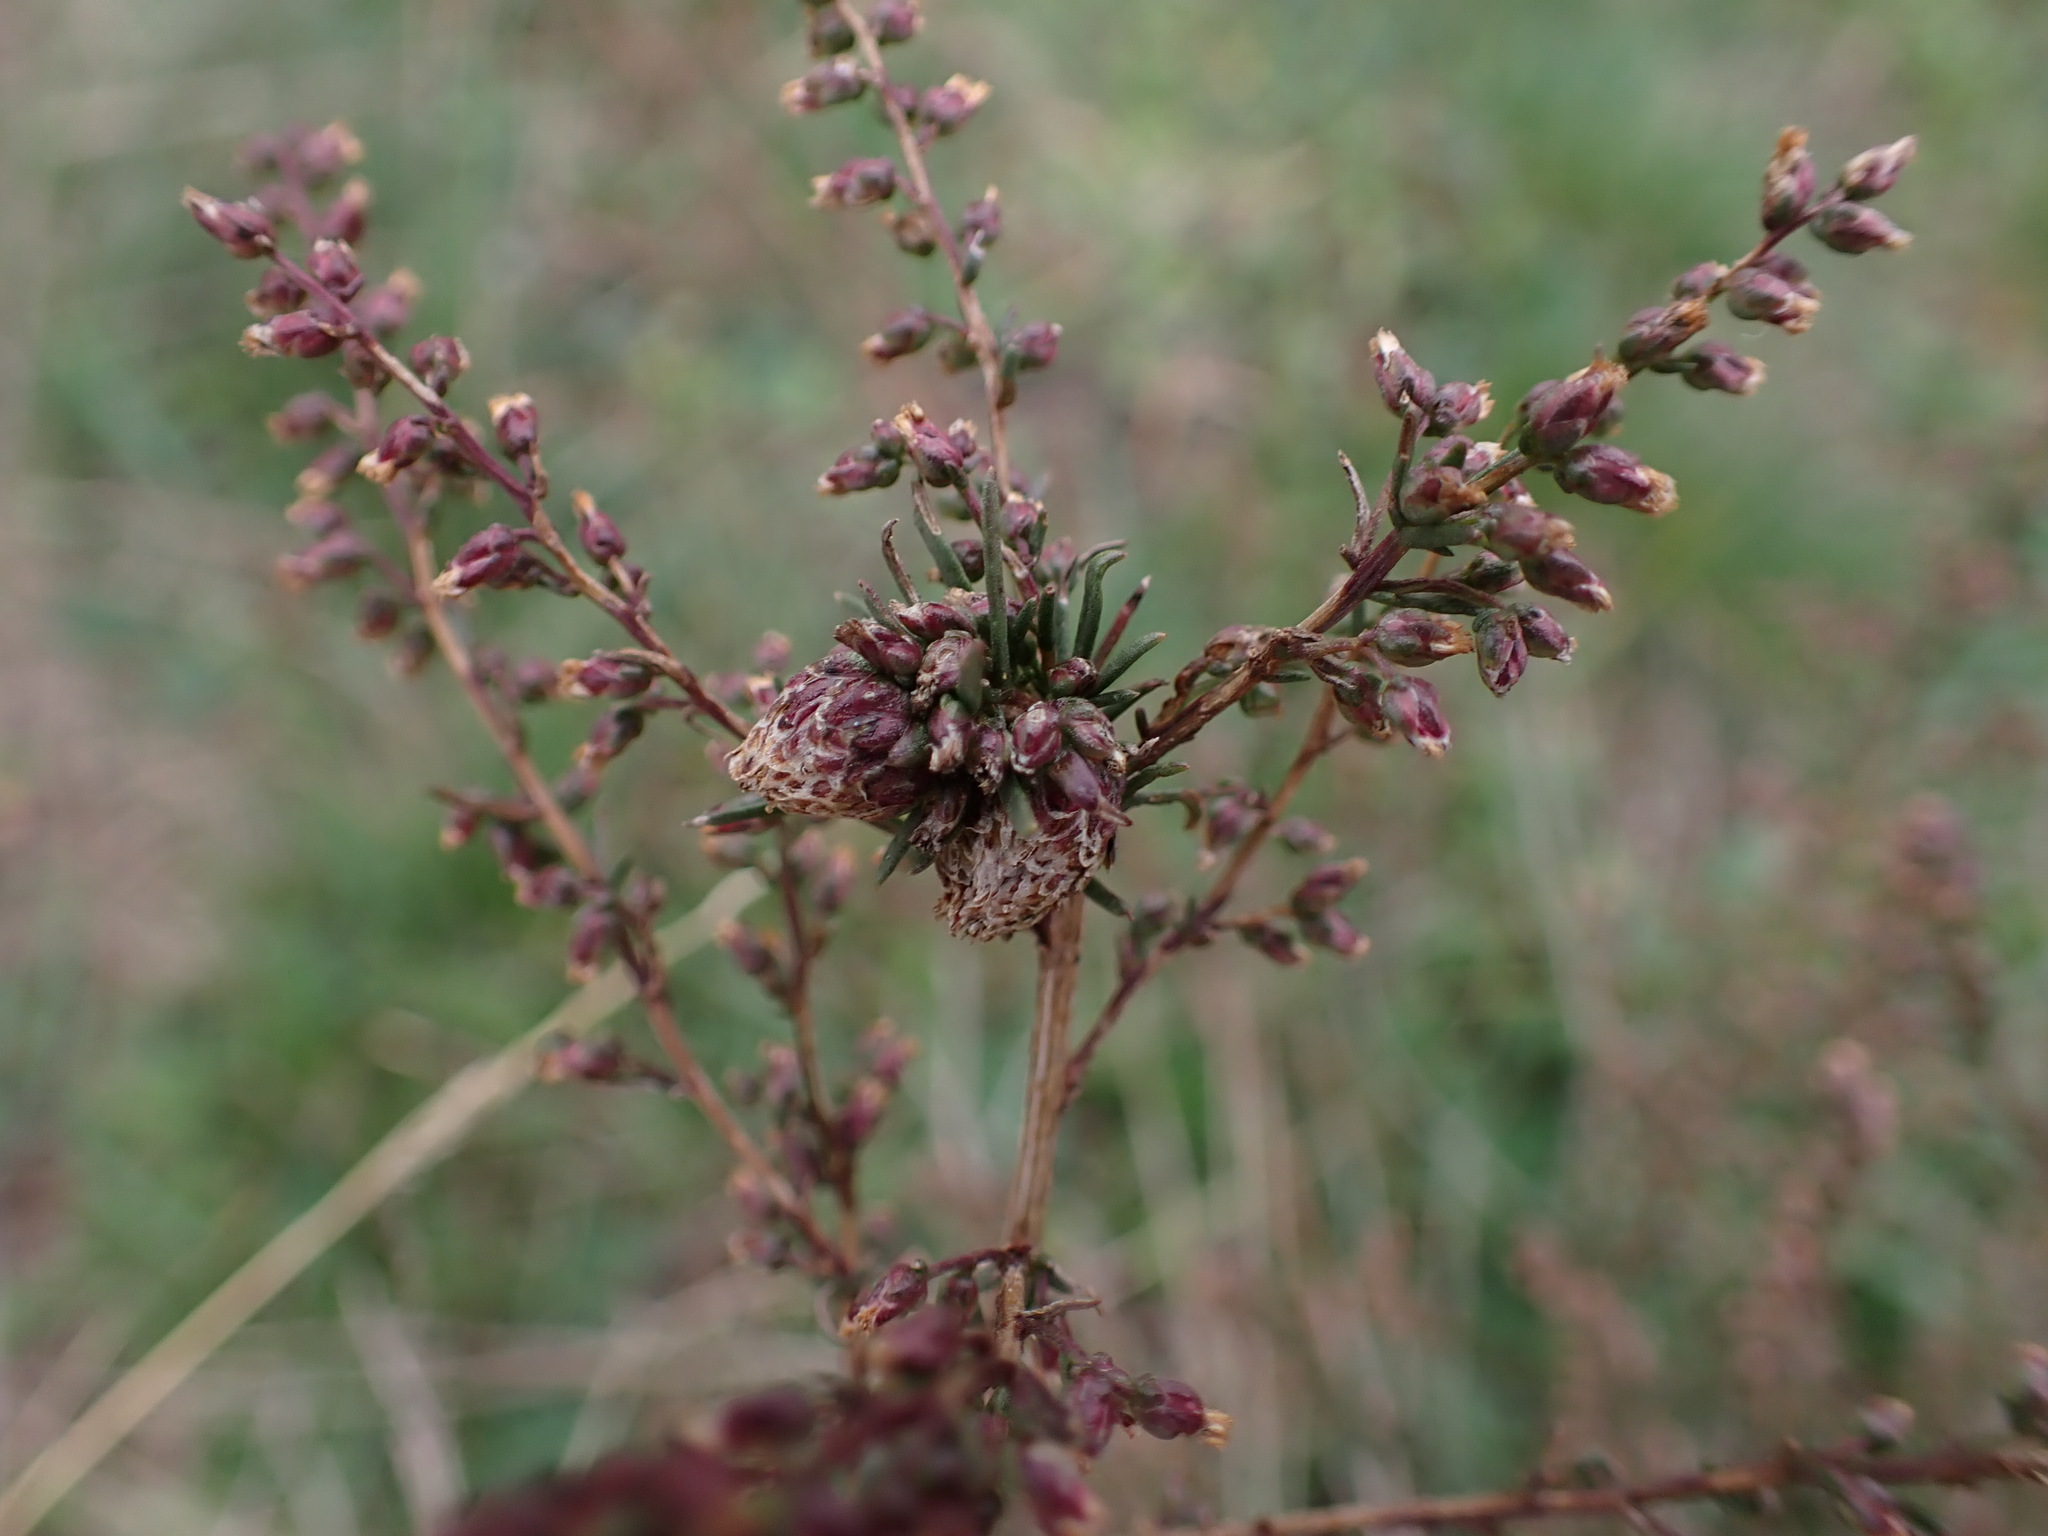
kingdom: Animalia
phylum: Arthropoda
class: Insecta
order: Diptera
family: Cecidomyiidae
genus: Rhopalomyia
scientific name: Rhopalomyia artemisiae
